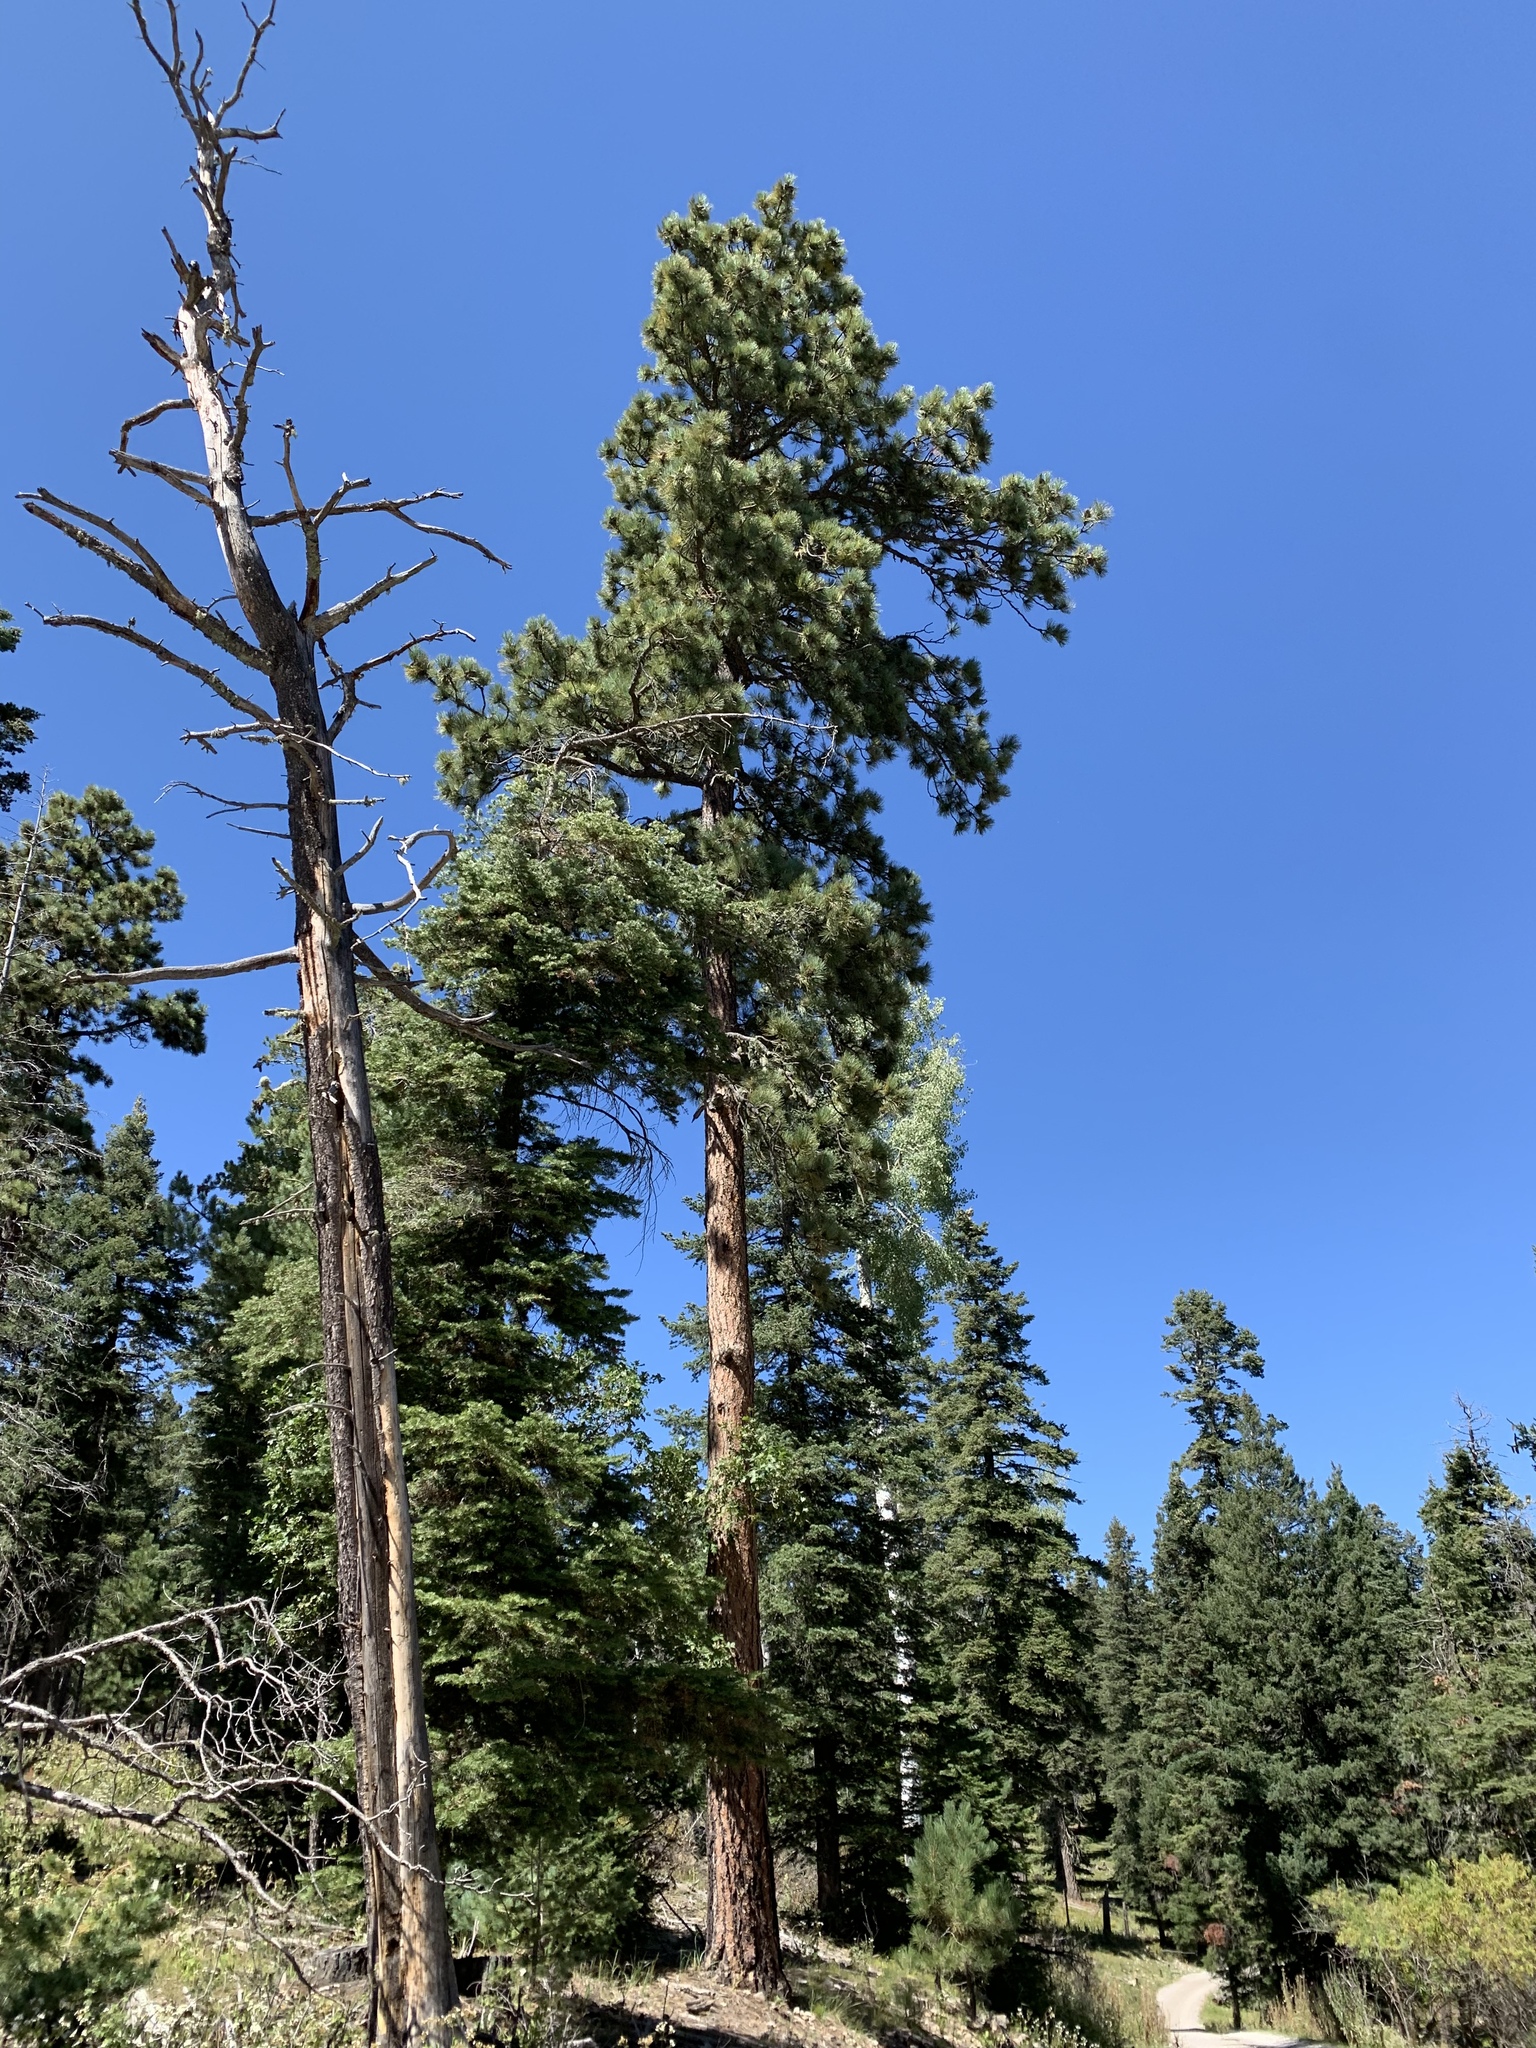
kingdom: Plantae
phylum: Tracheophyta
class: Pinopsida
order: Pinales
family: Pinaceae
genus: Pinus
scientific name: Pinus ponderosa
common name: Western yellow-pine
